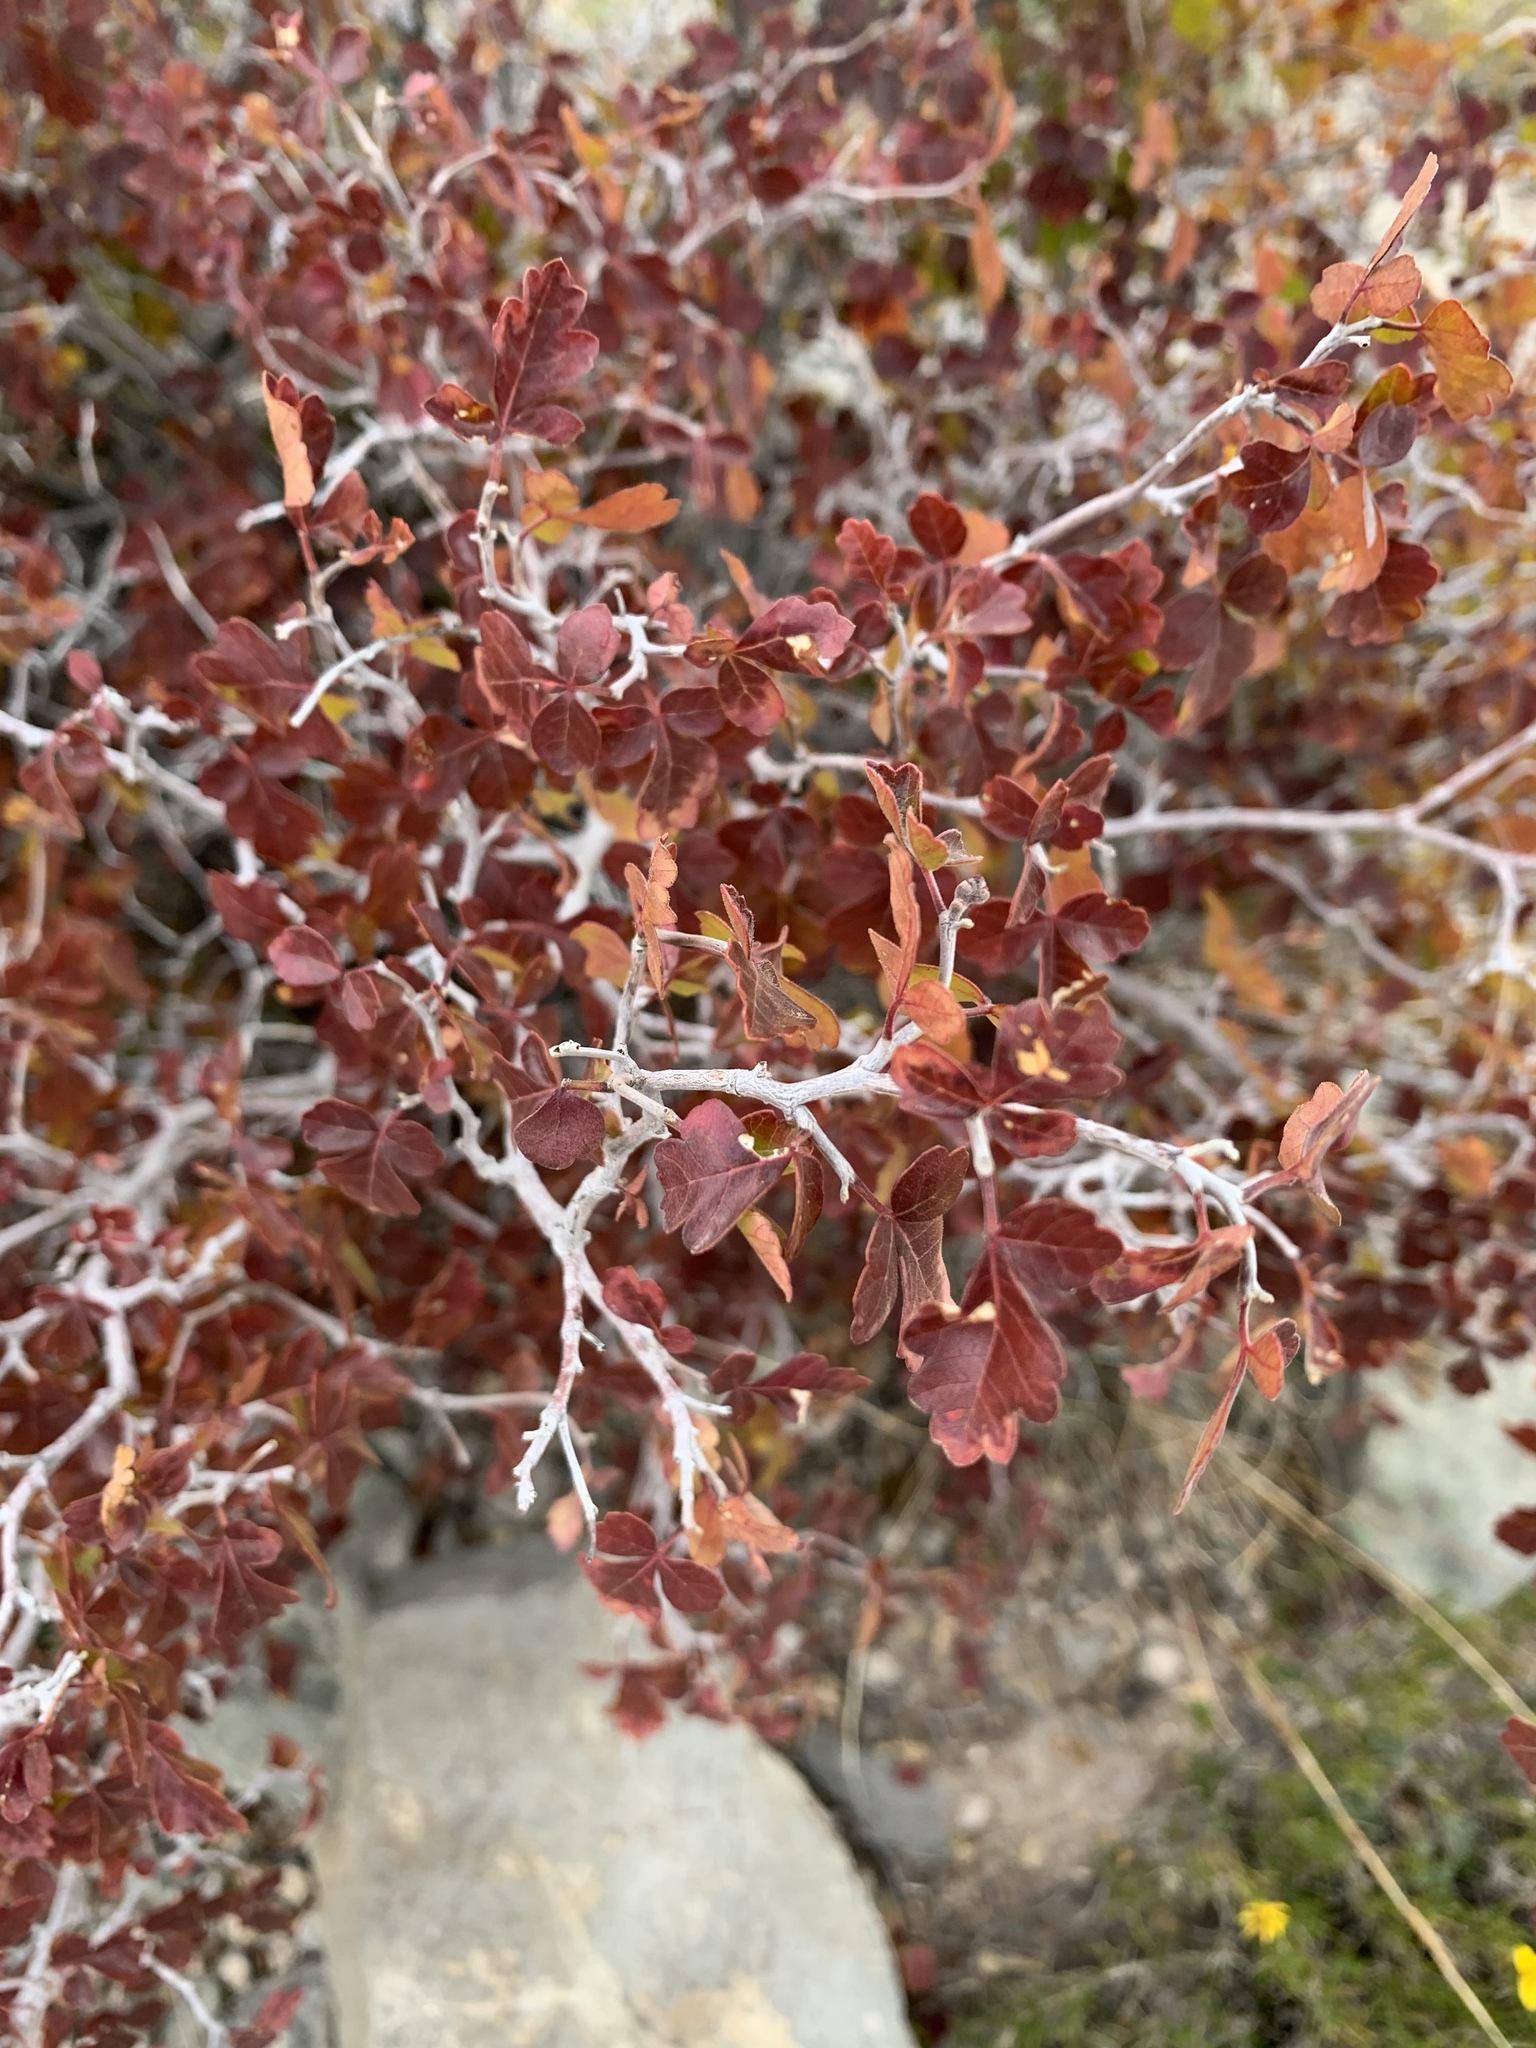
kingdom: Plantae
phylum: Tracheophyta
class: Magnoliopsida
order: Sapindales
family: Anacardiaceae
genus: Rhus
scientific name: Rhus aromatica
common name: Aromatic sumac
